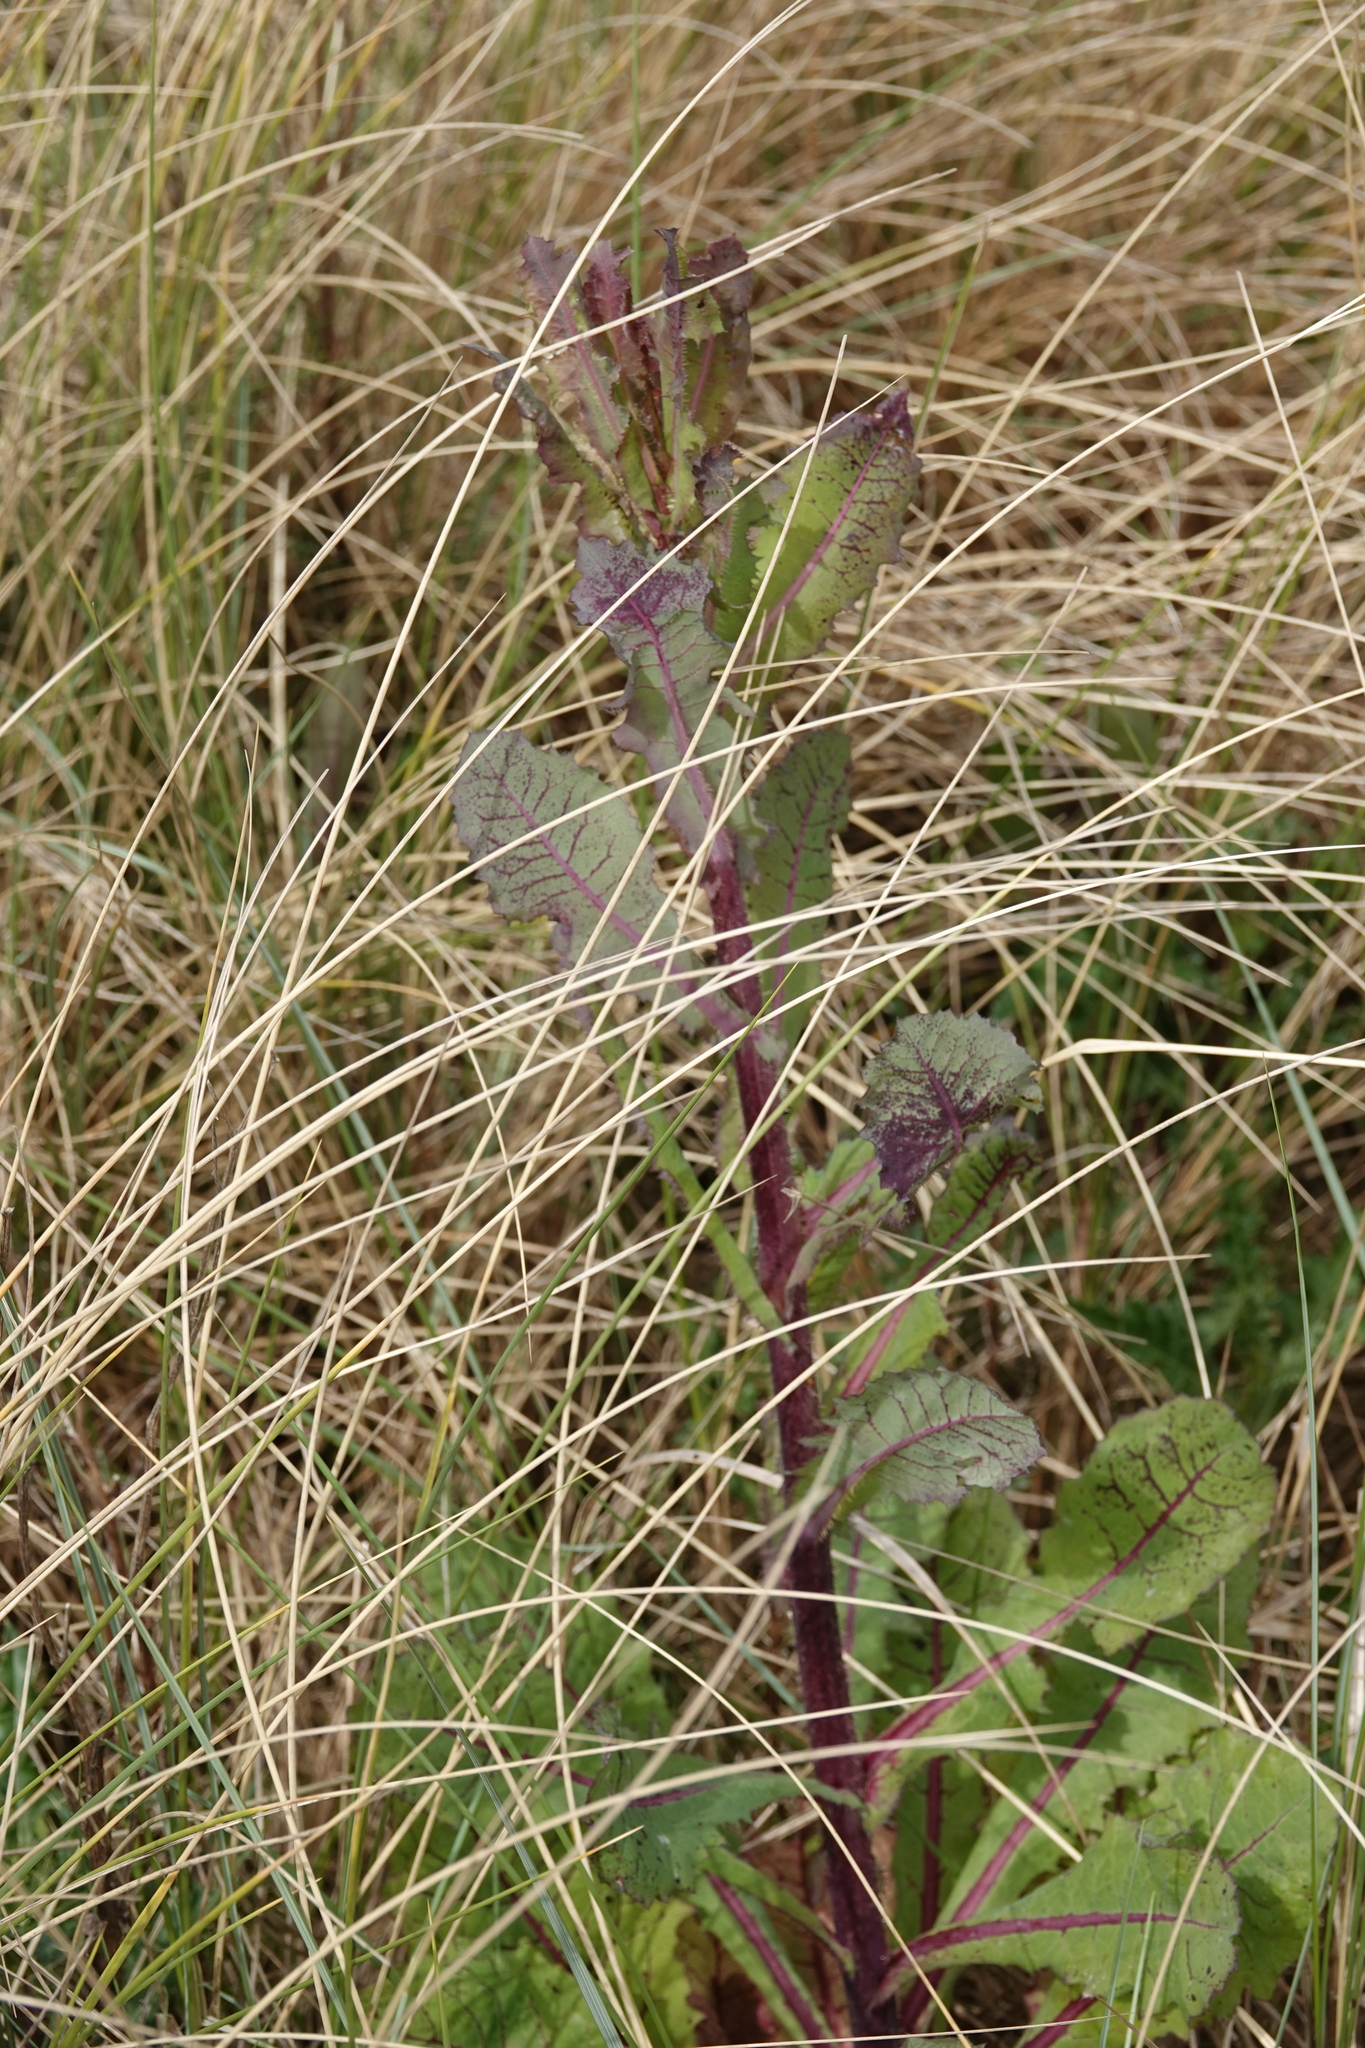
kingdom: Plantae
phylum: Tracheophyta
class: Magnoliopsida
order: Asterales
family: Asteraceae
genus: Lactuca
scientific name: Lactuca virosa
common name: Great lettuce
